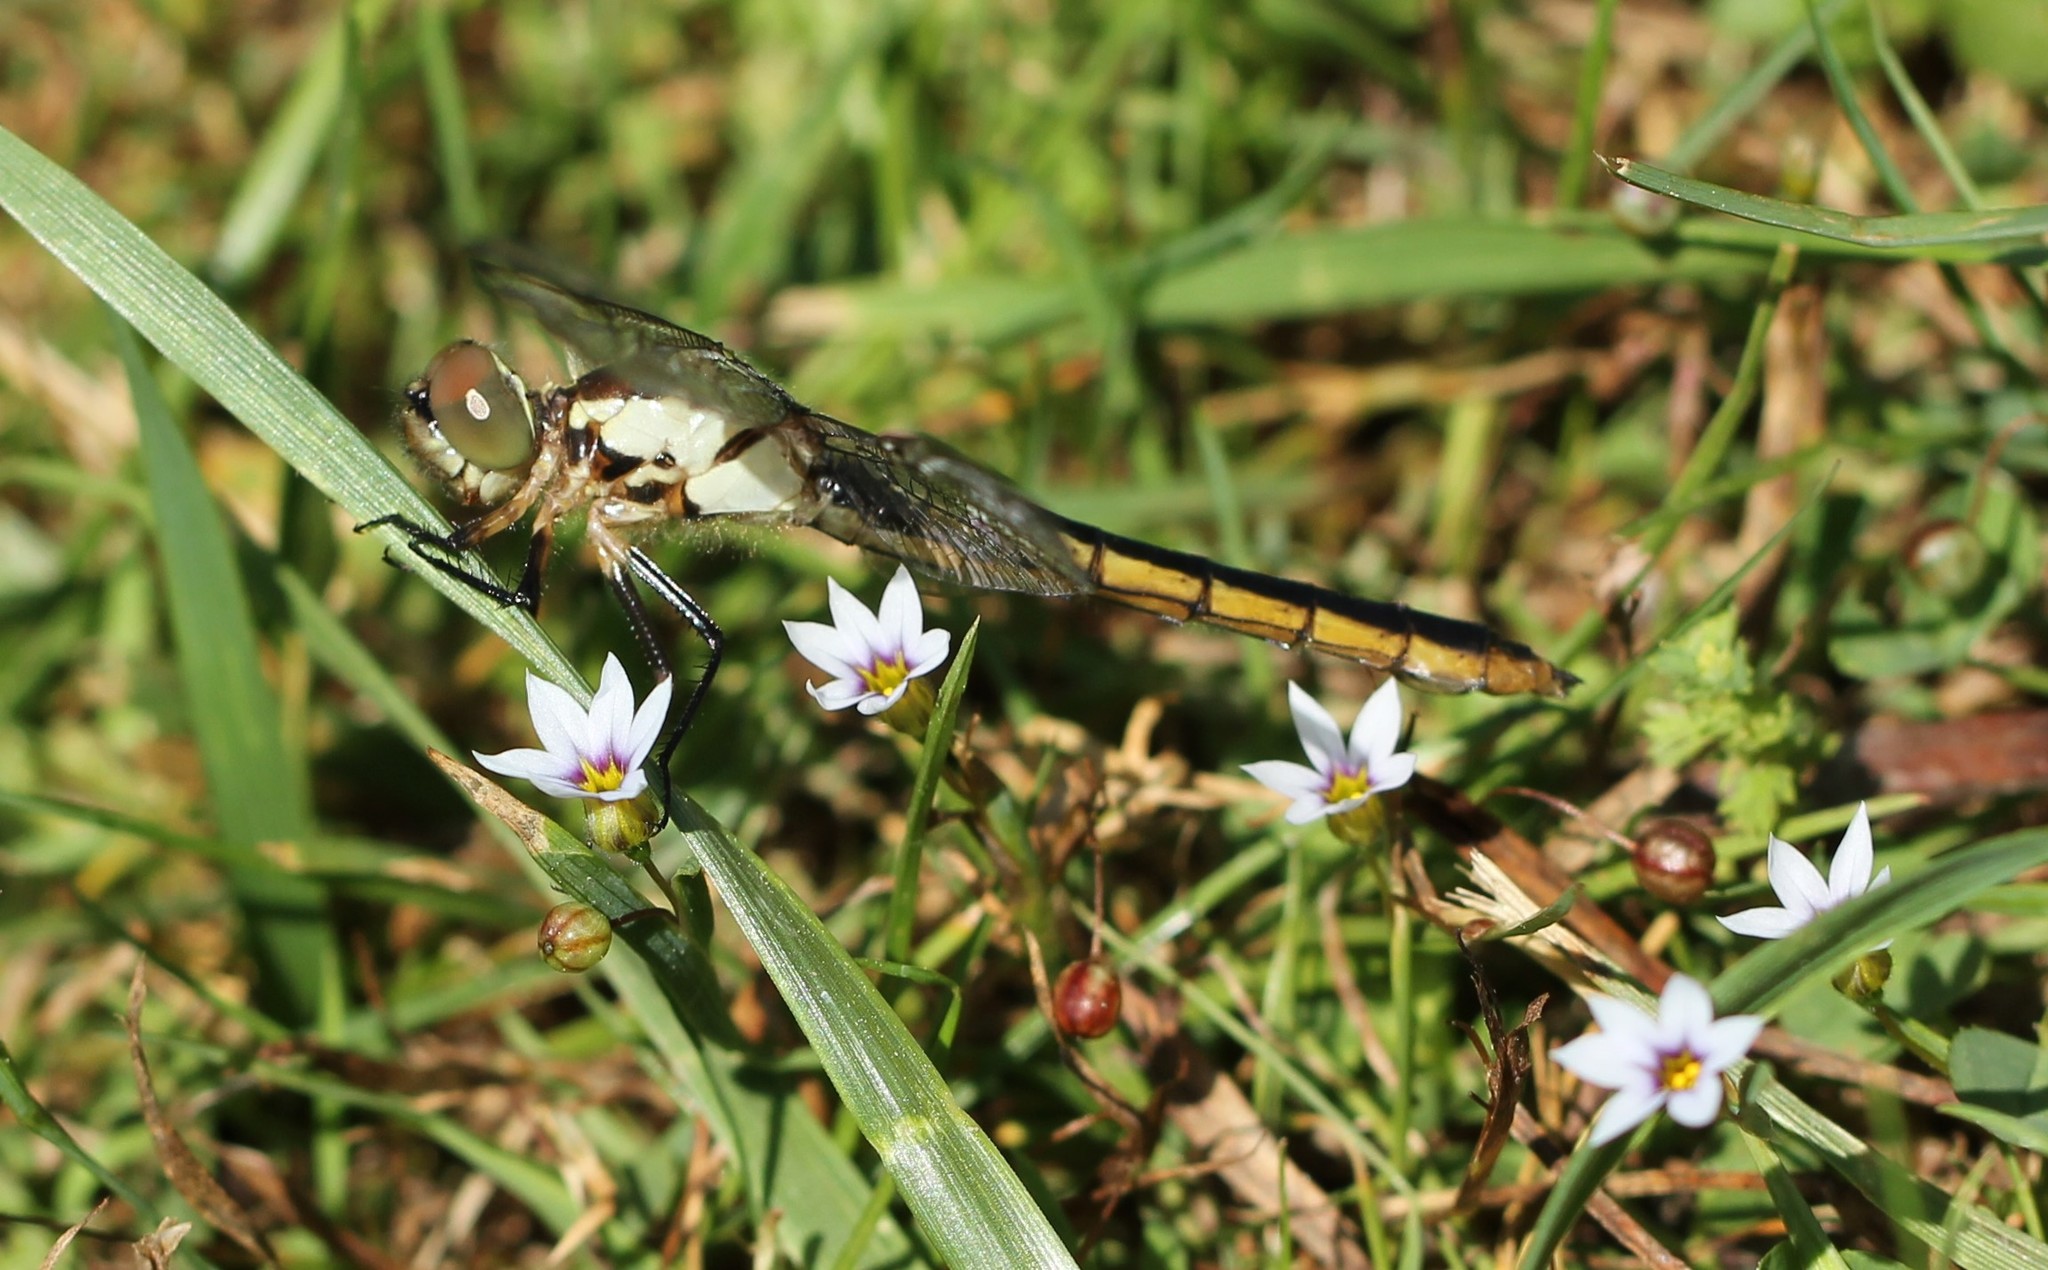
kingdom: Animalia
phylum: Arthropoda
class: Insecta
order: Odonata
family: Libellulidae
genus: Libellula
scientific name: Libellula incesta
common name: Slaty skimmer
